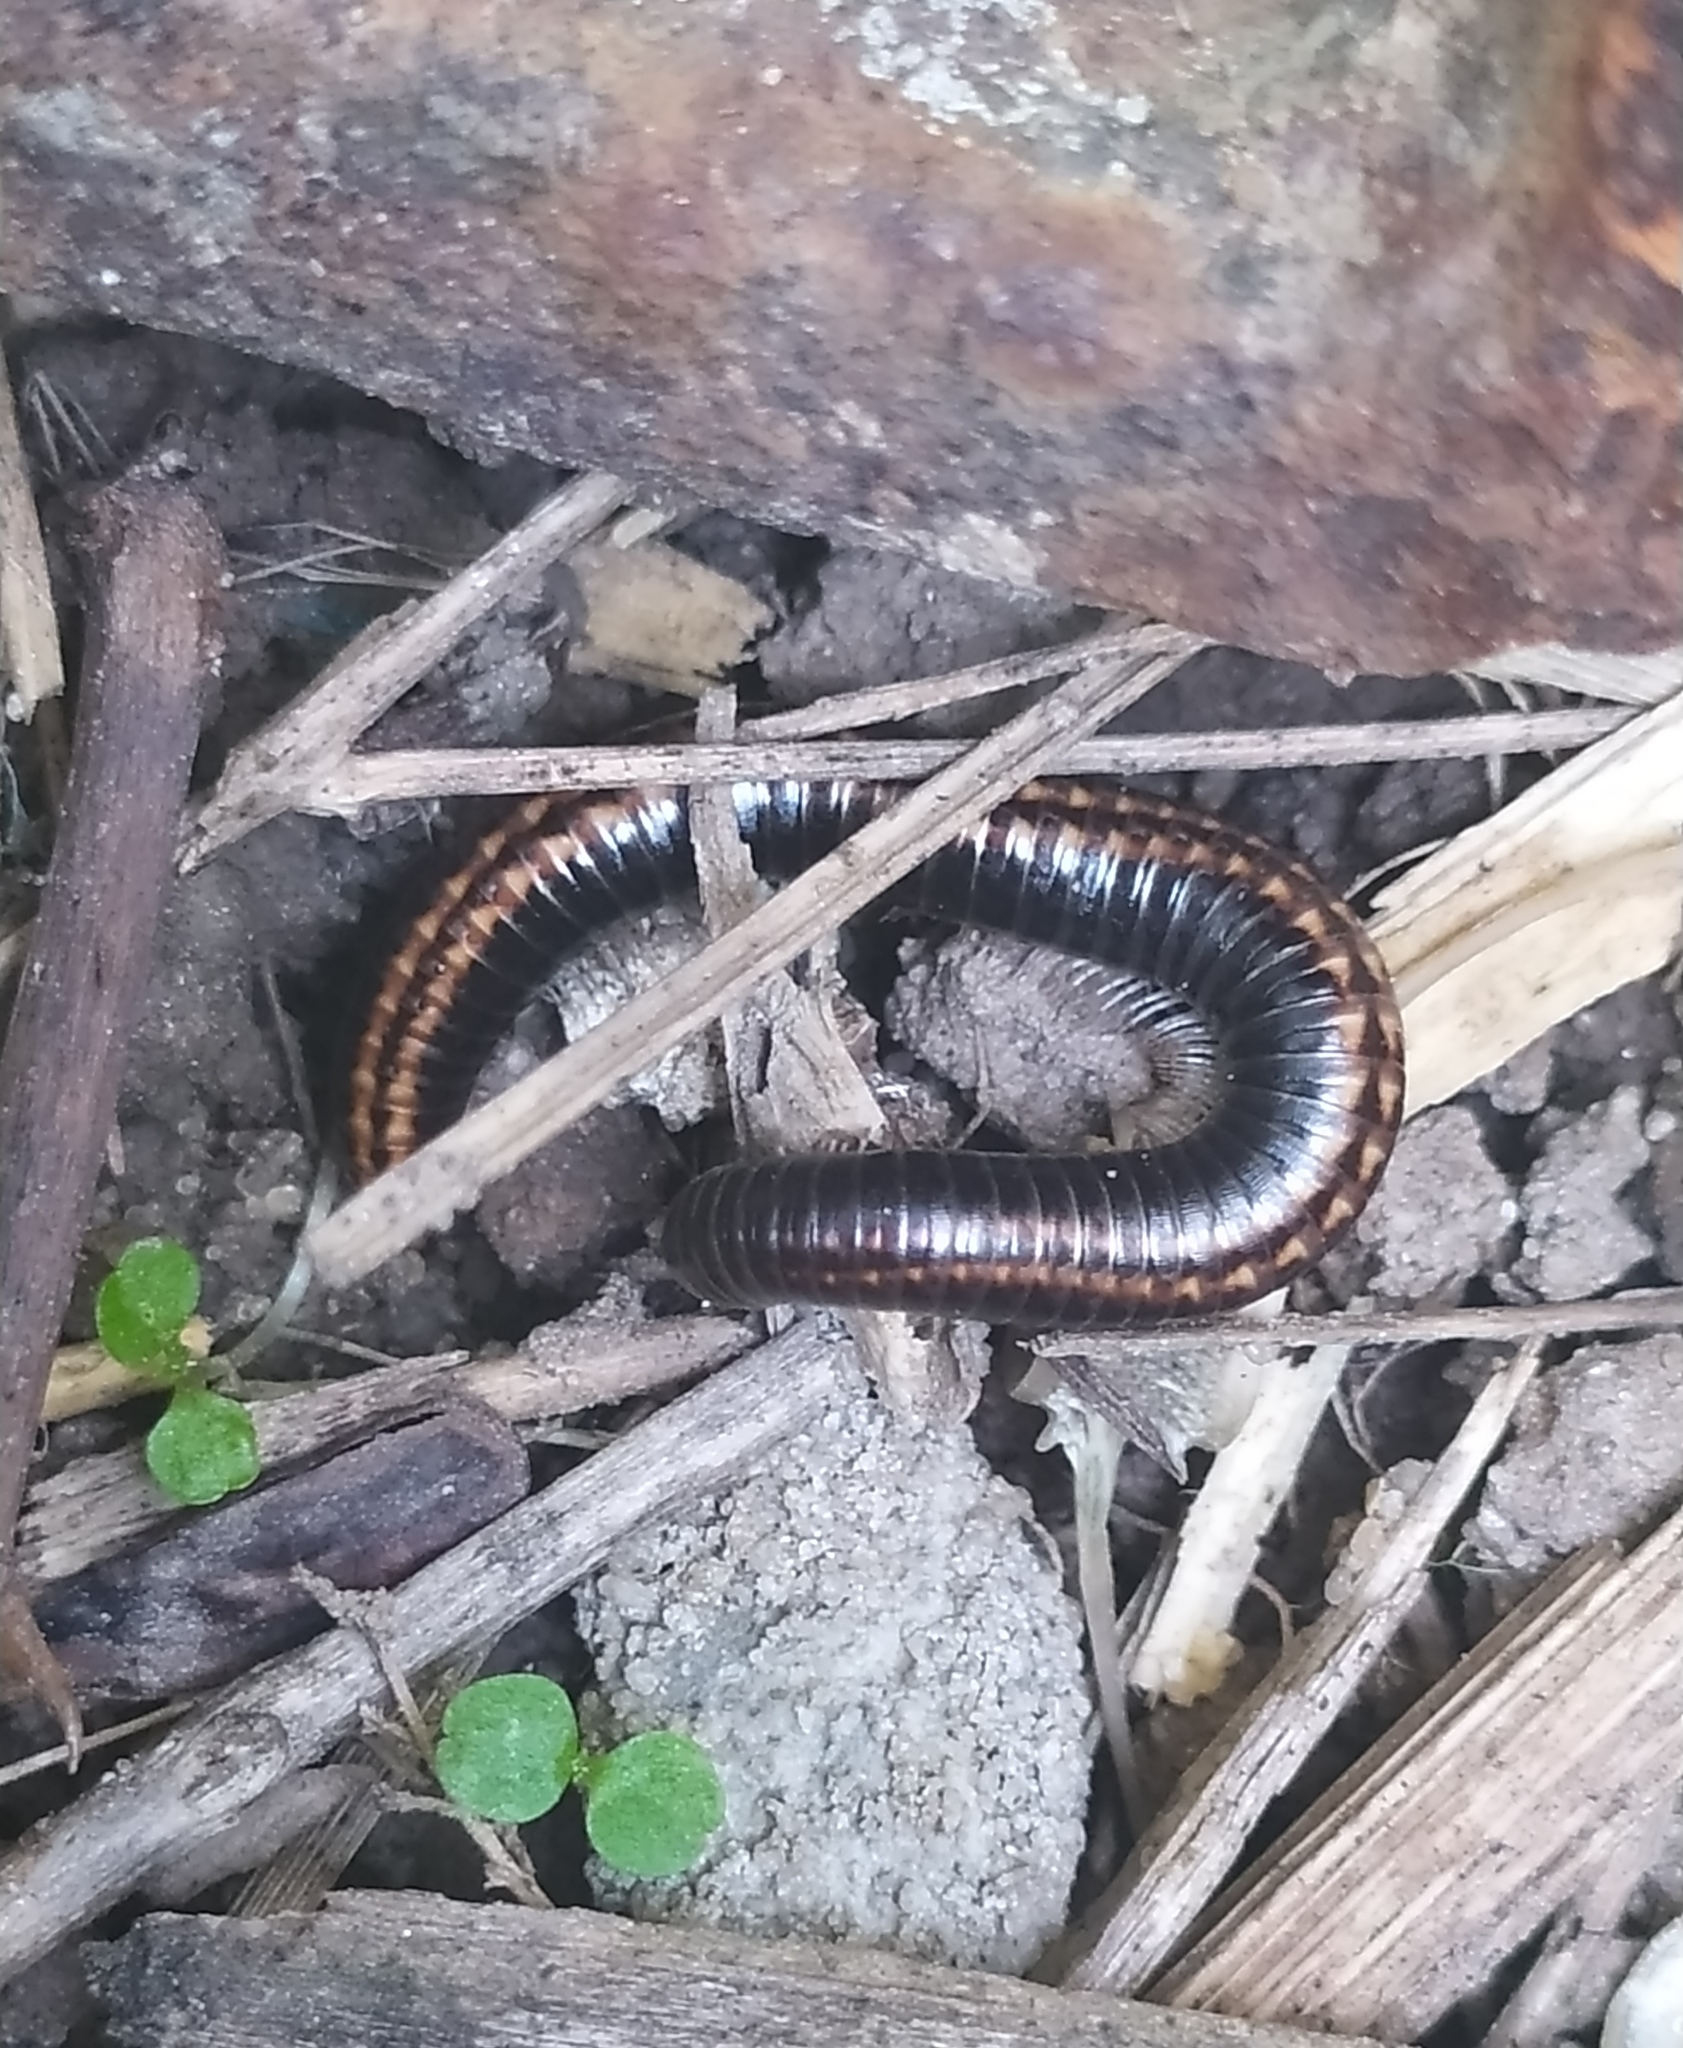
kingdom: Animalia
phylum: Arthropoda
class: Diplopoda
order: Julida
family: Julidae
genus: Ommatoiulus
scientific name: Ommatoiulus sabulosus
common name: Striped millipede
